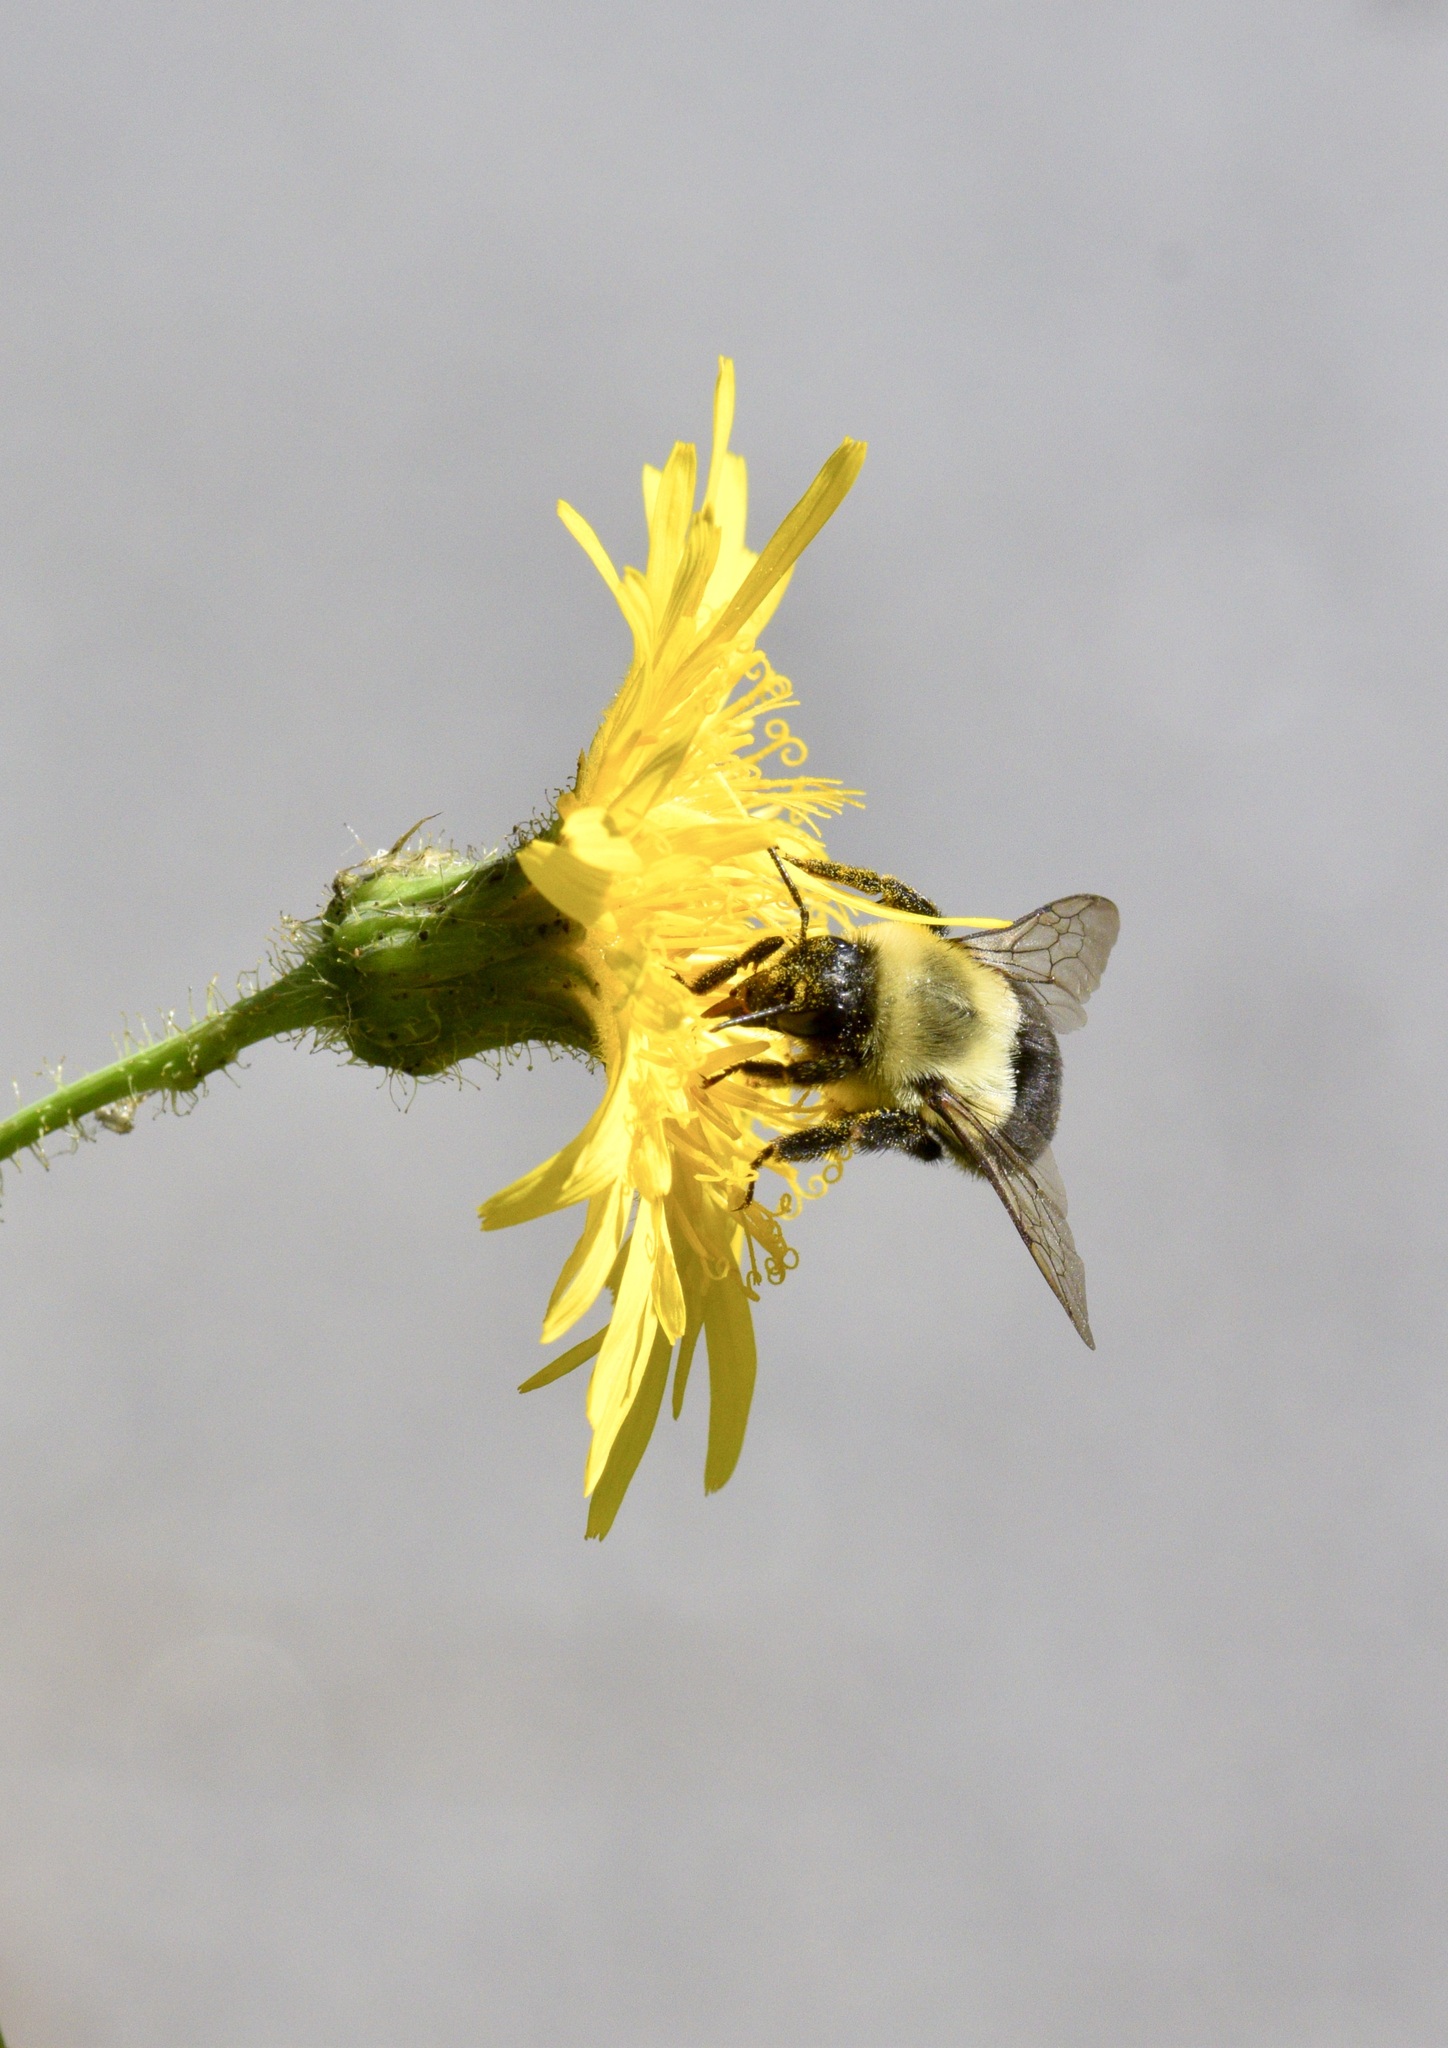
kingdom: Animalia
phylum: Arthropoda
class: Insecta
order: Hymenoptera
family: Apidae
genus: Bombus
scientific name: Bombus impatiens
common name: Common eastern bumble bee
